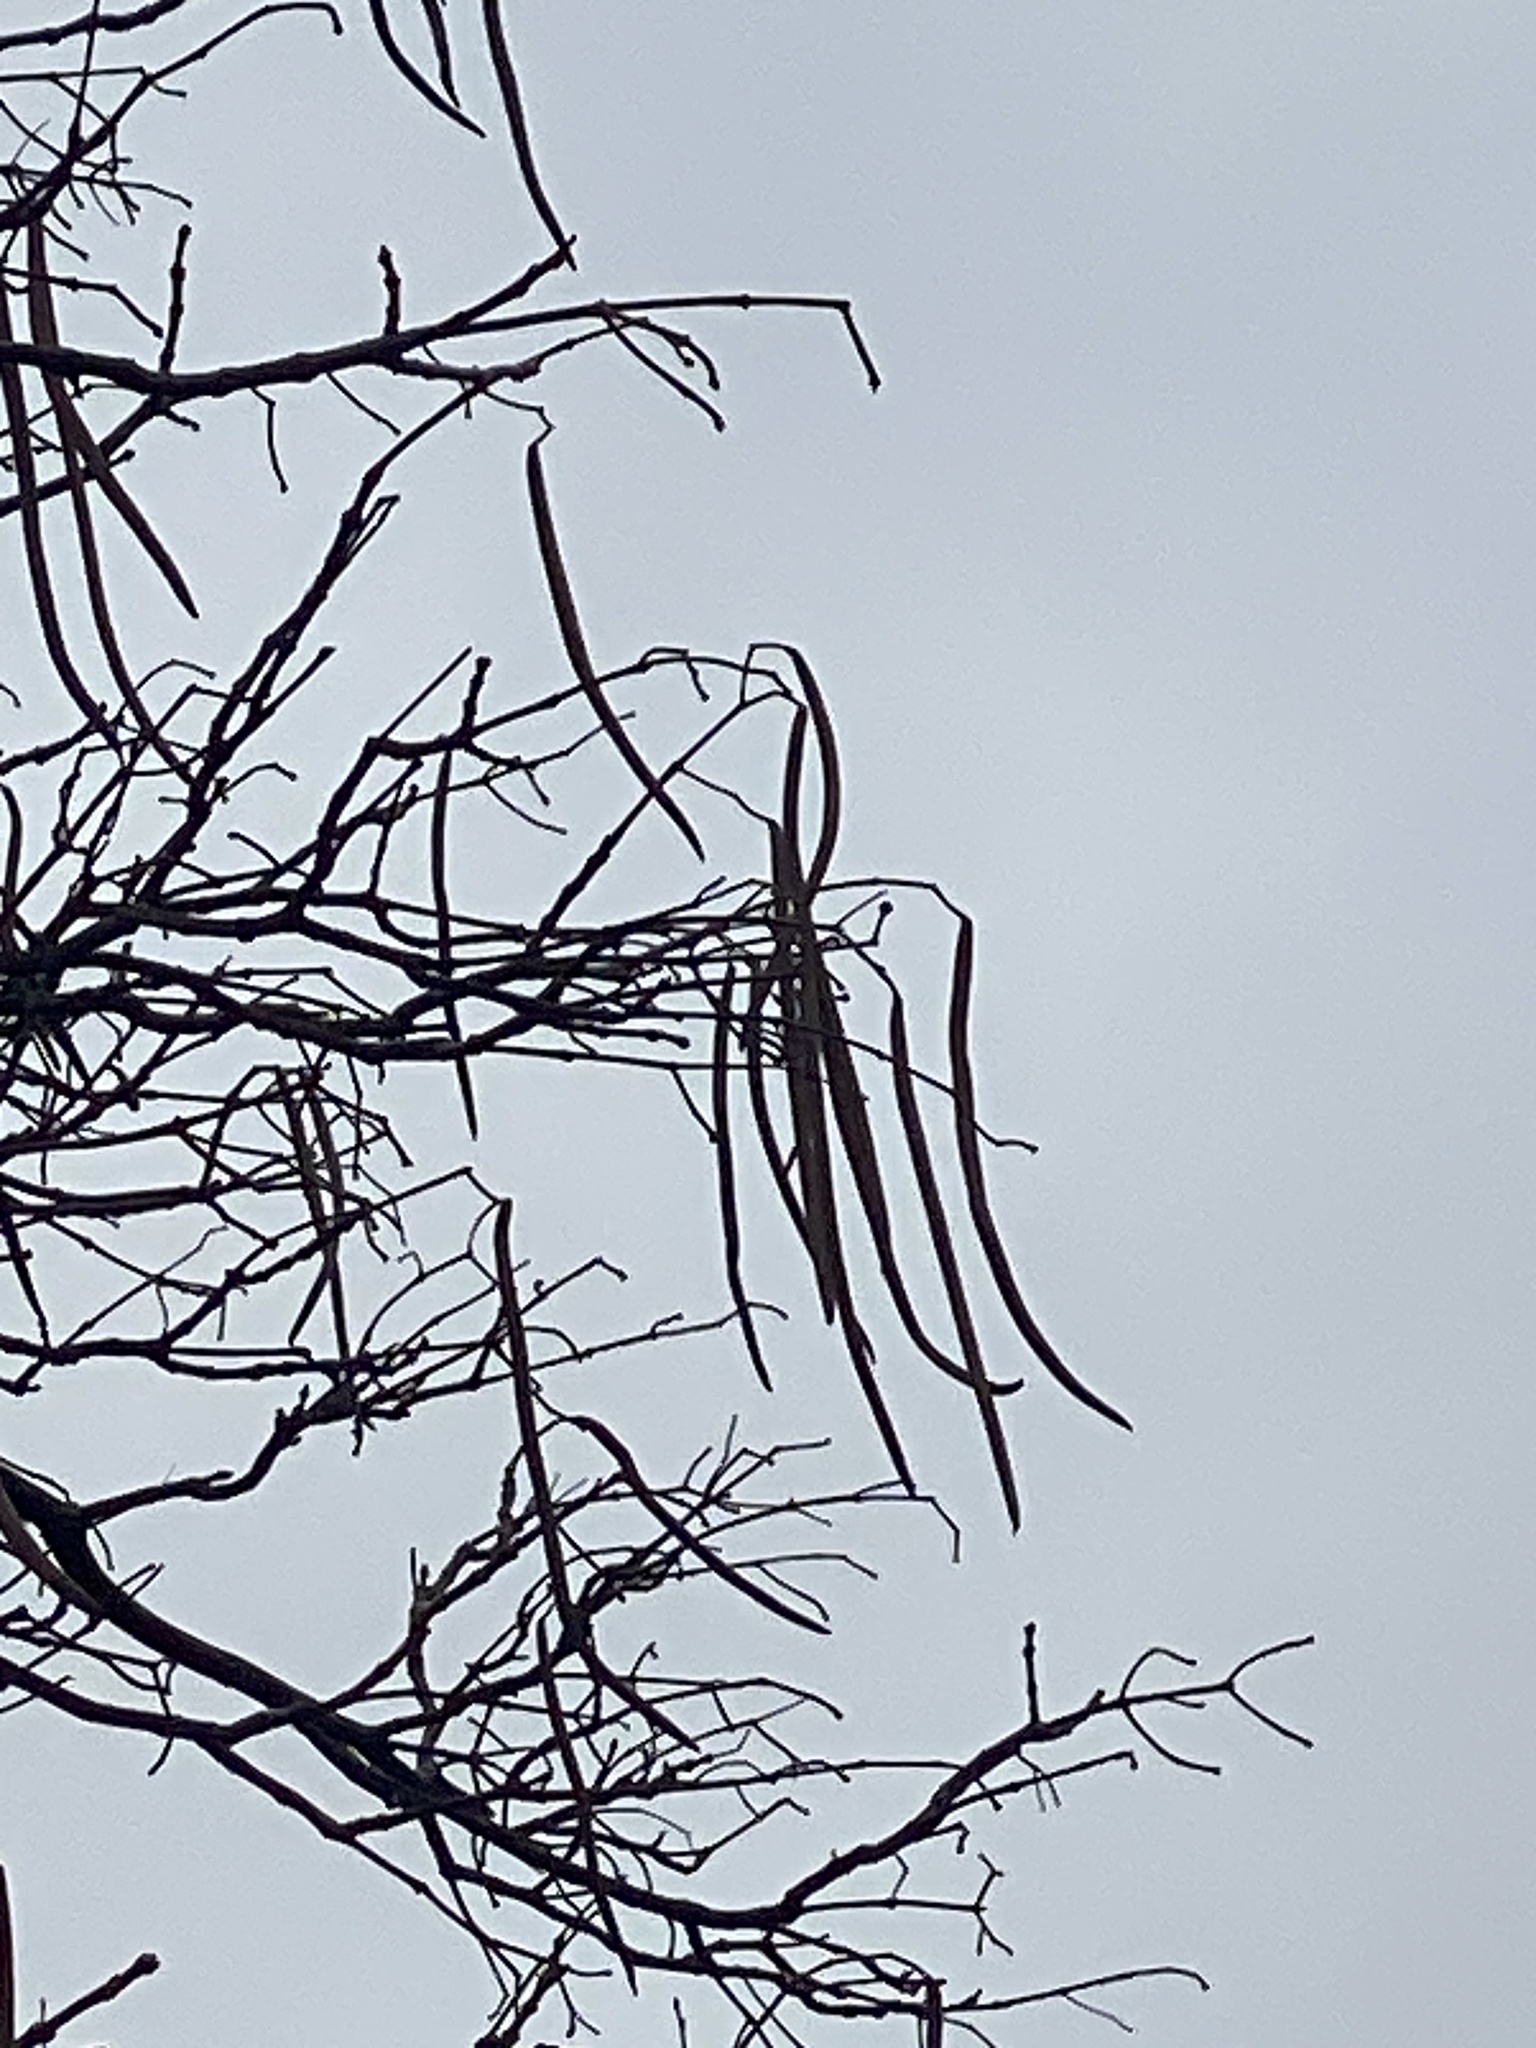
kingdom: Plantae
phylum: Tracheophyta
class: Magnoliopsida
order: Lamiales
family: Bignoniaceae
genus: Catalpa
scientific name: Catalpa
